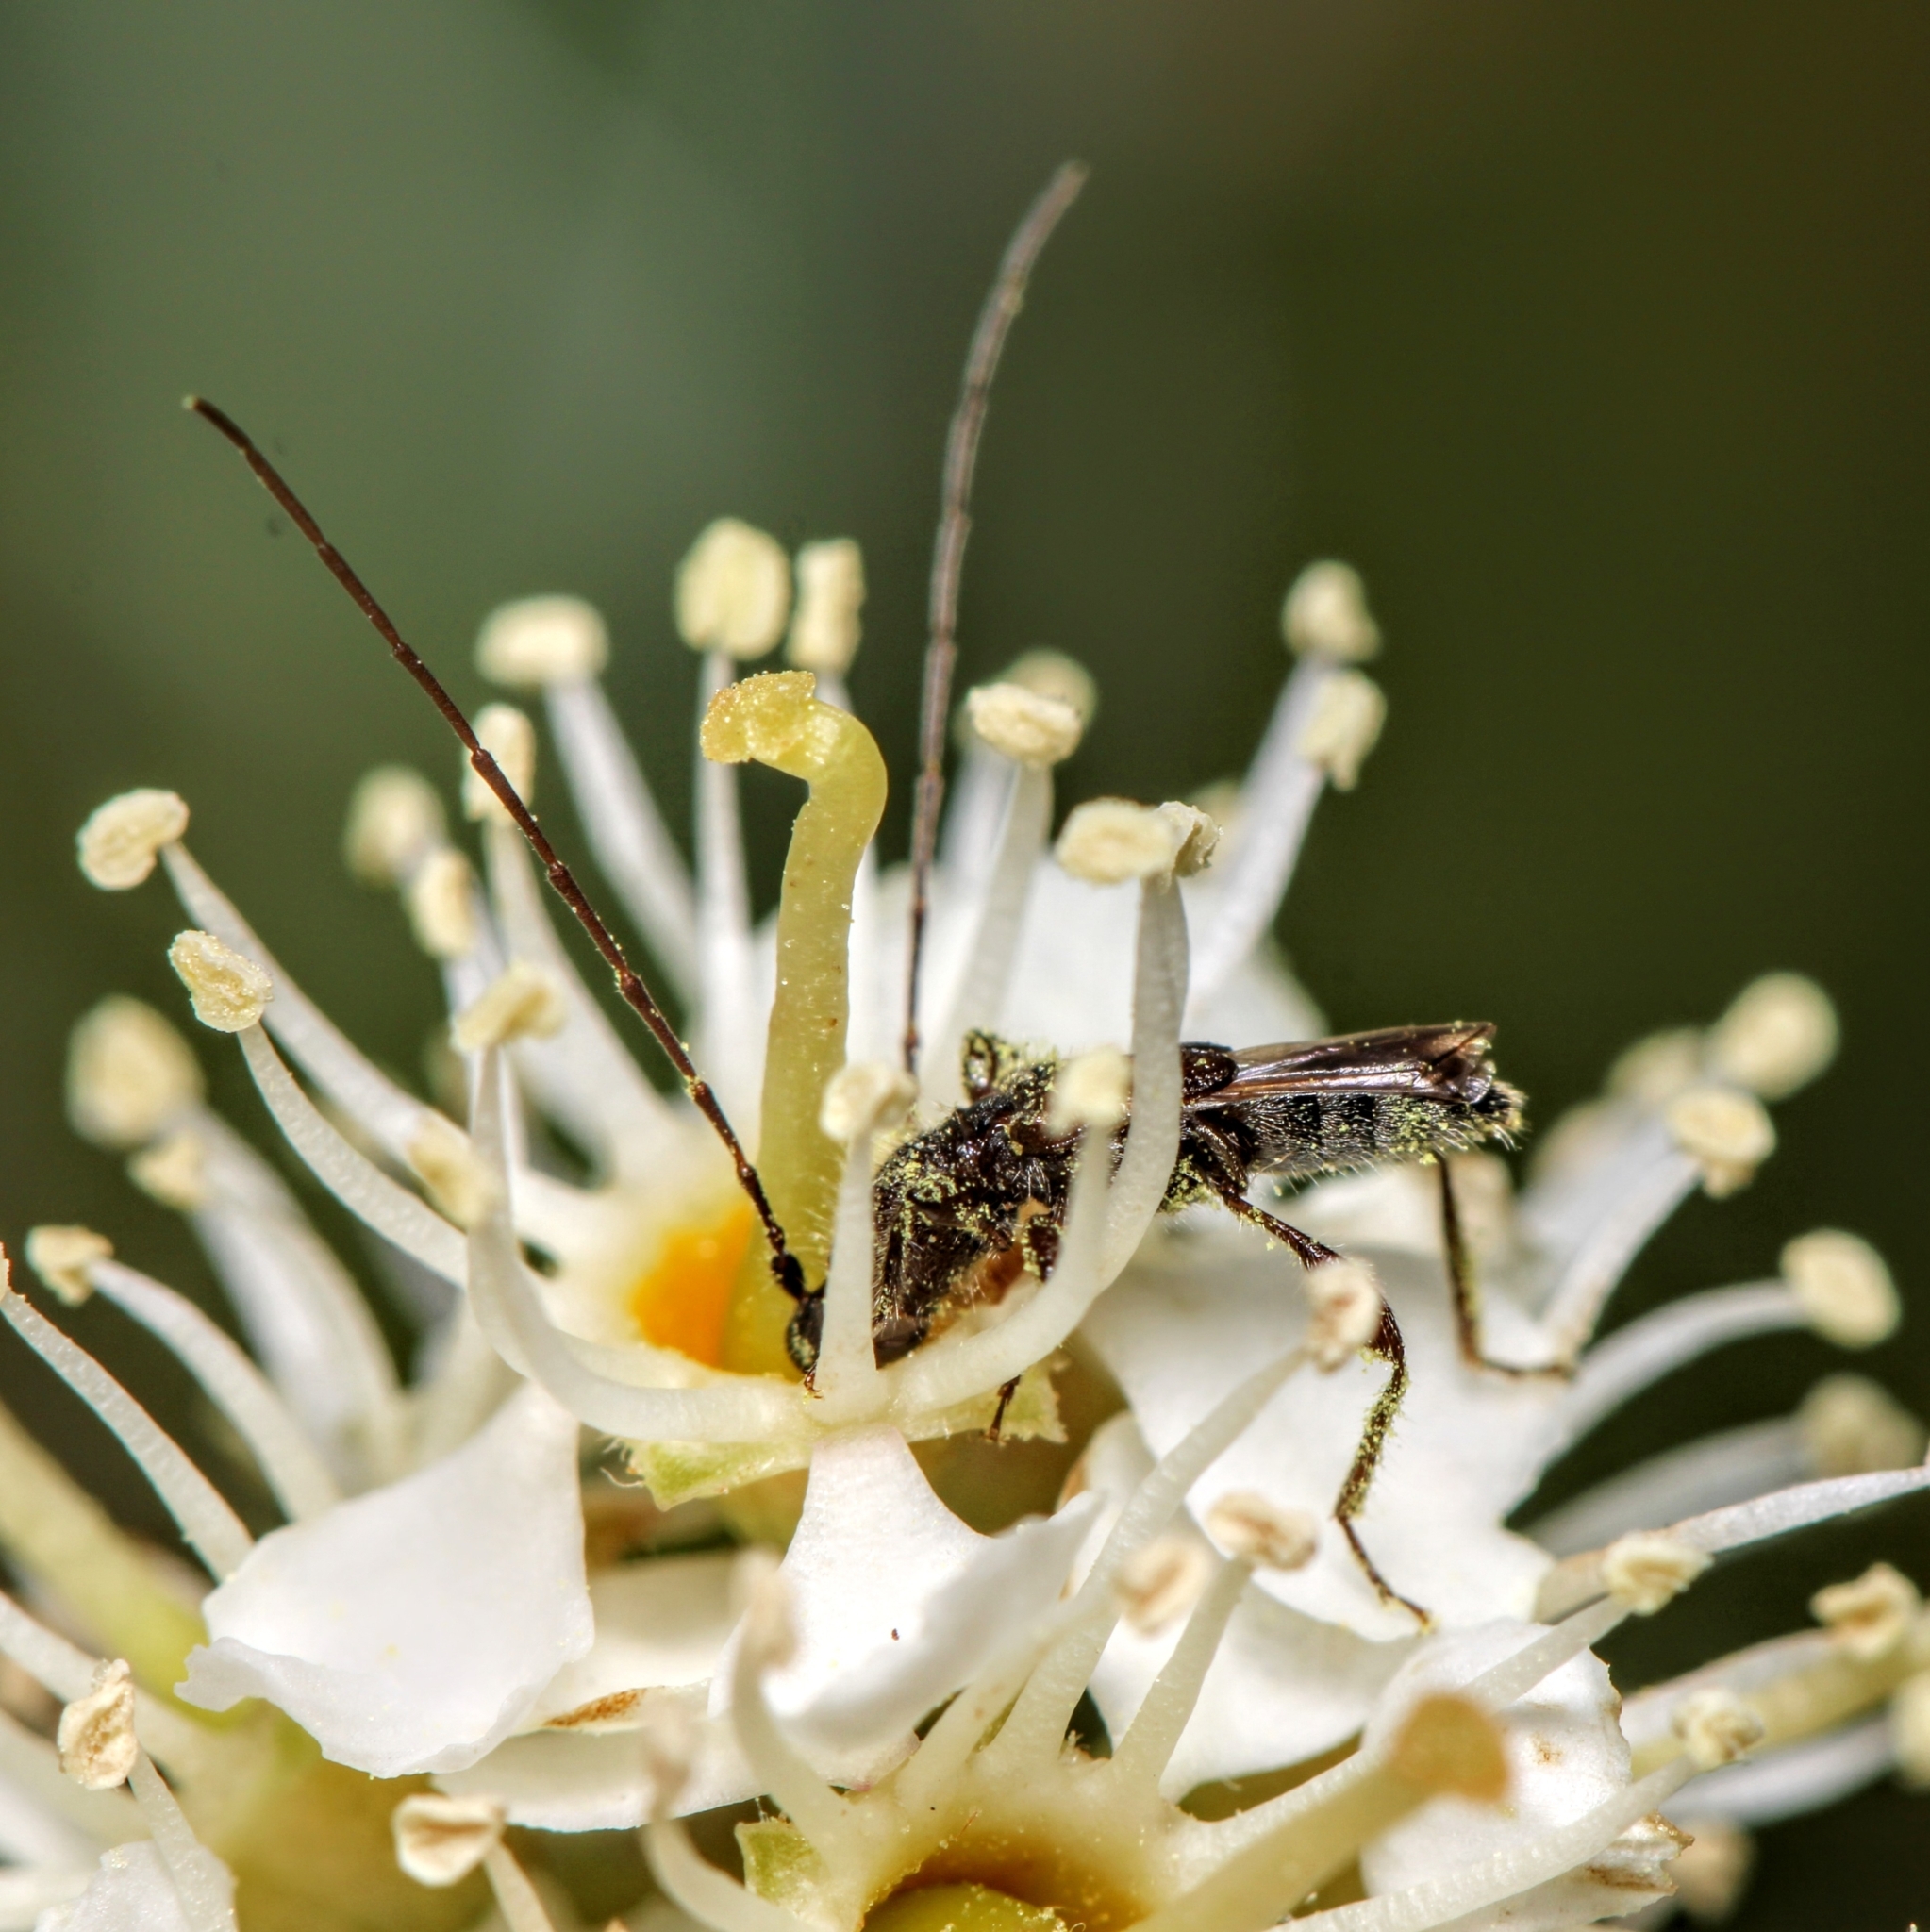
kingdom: Animalia
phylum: Arthropoda
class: Insecta
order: Coleoptera
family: Cerambycidae
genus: Molorchus
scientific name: Molorchus bimaculatus
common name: Bimaculate longhorn beetle
